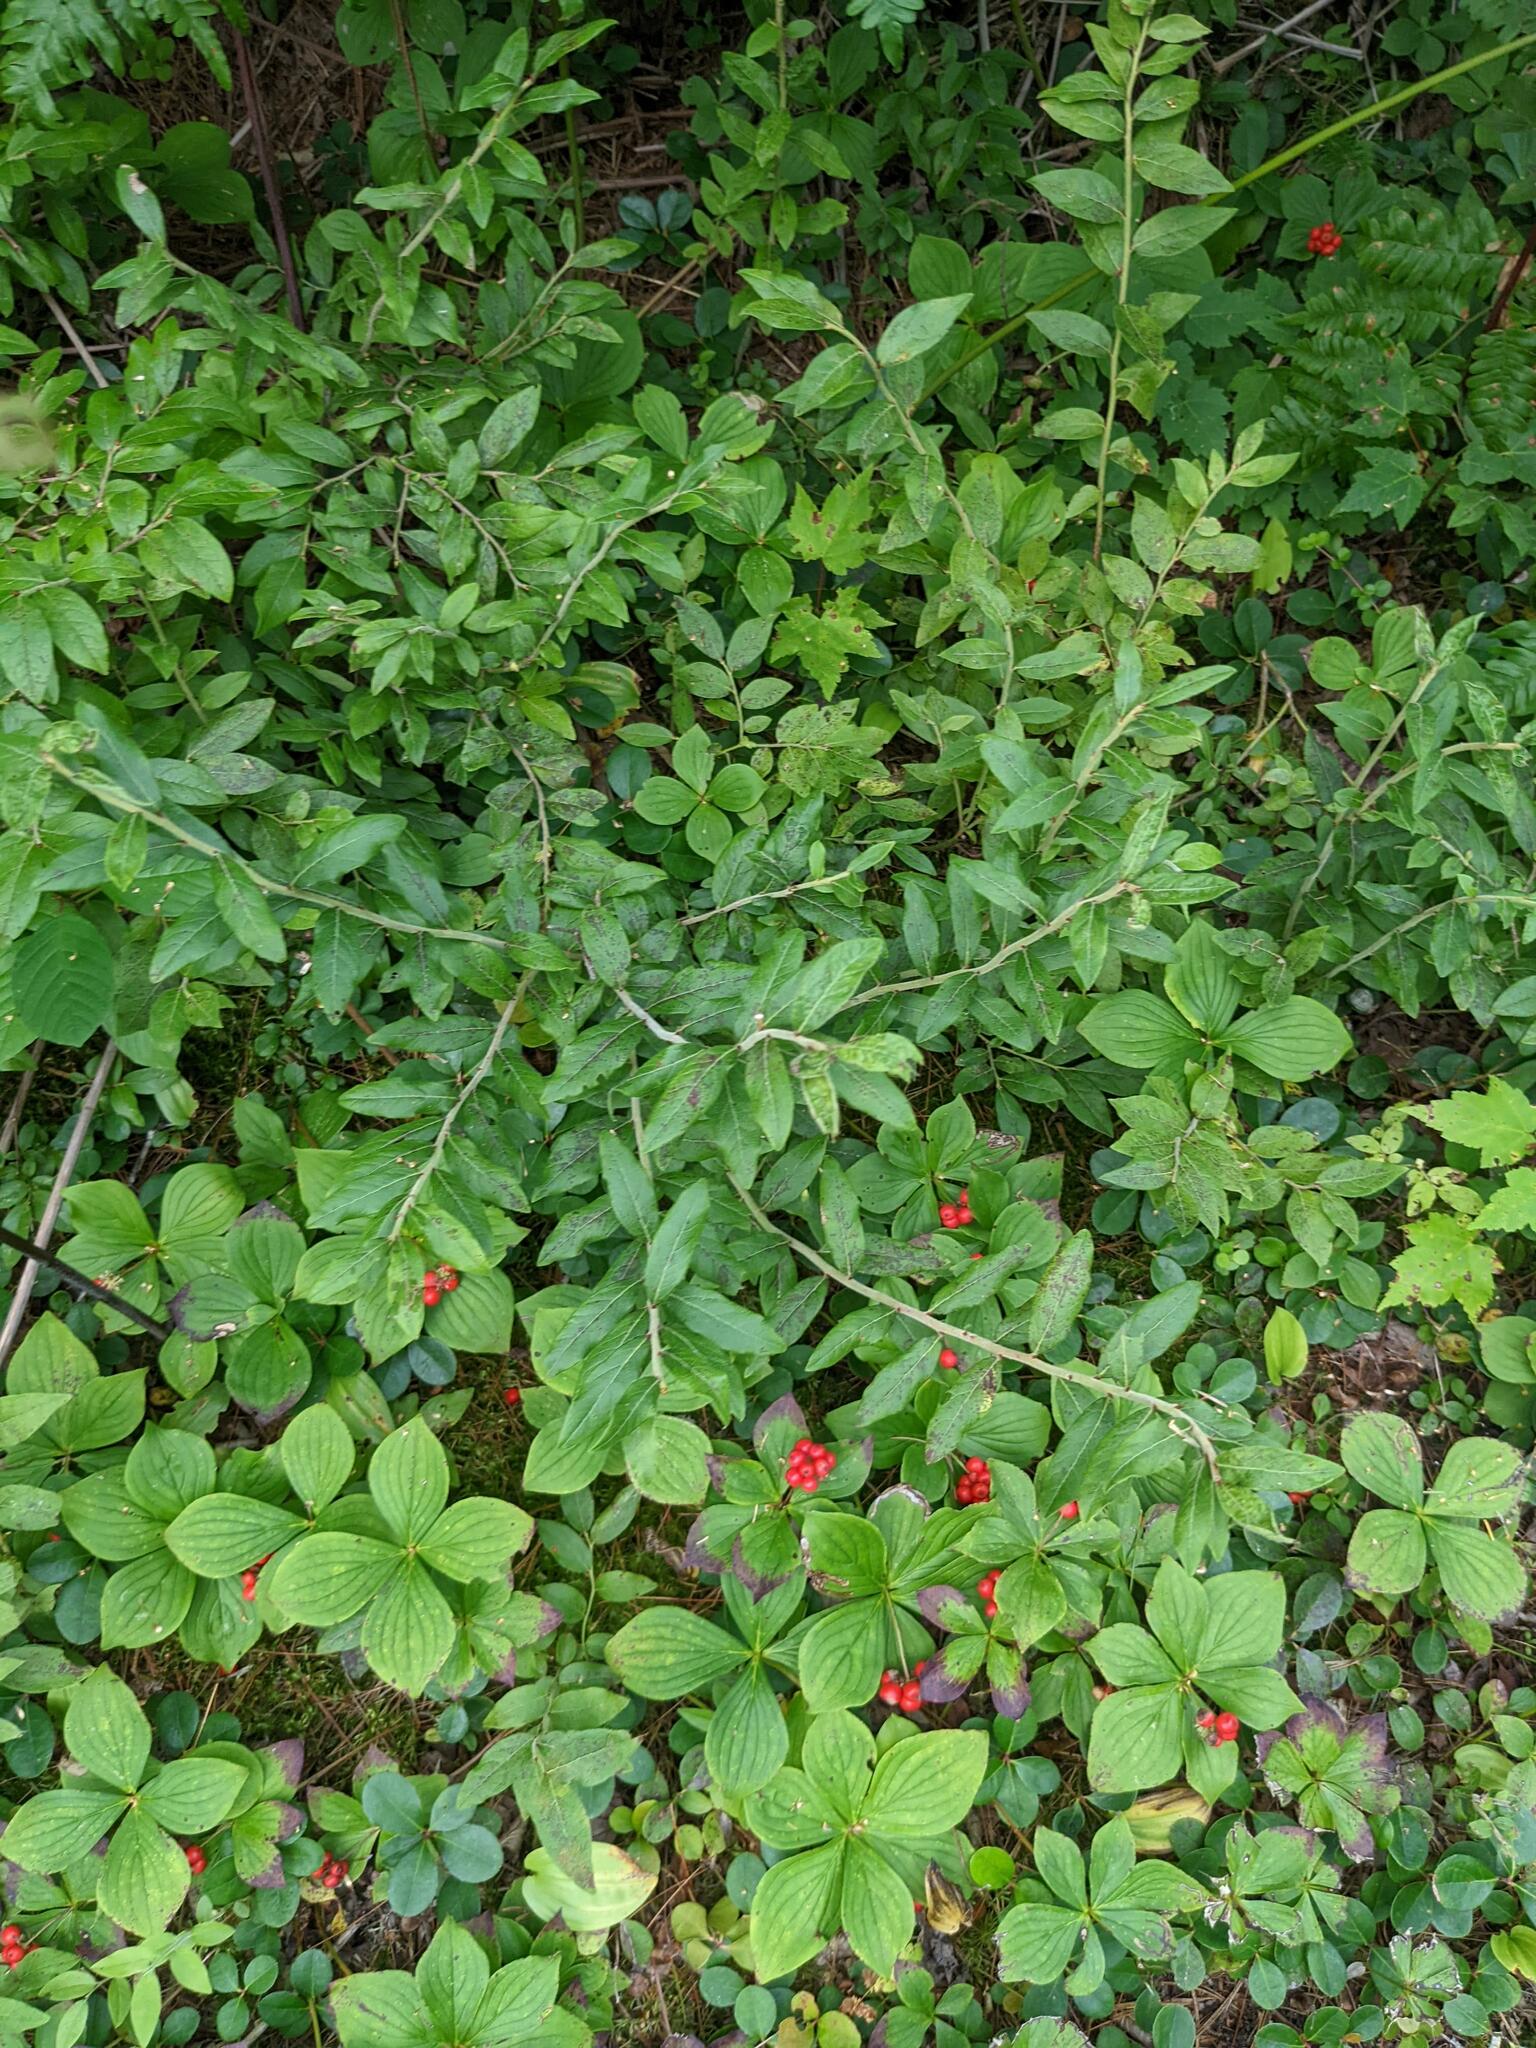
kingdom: Plantae
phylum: Tracheophyta
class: Magnoliopsida
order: Cornales
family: Cornaceae
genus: Cornus
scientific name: Cornus canadensis
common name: Creeping dogwood
